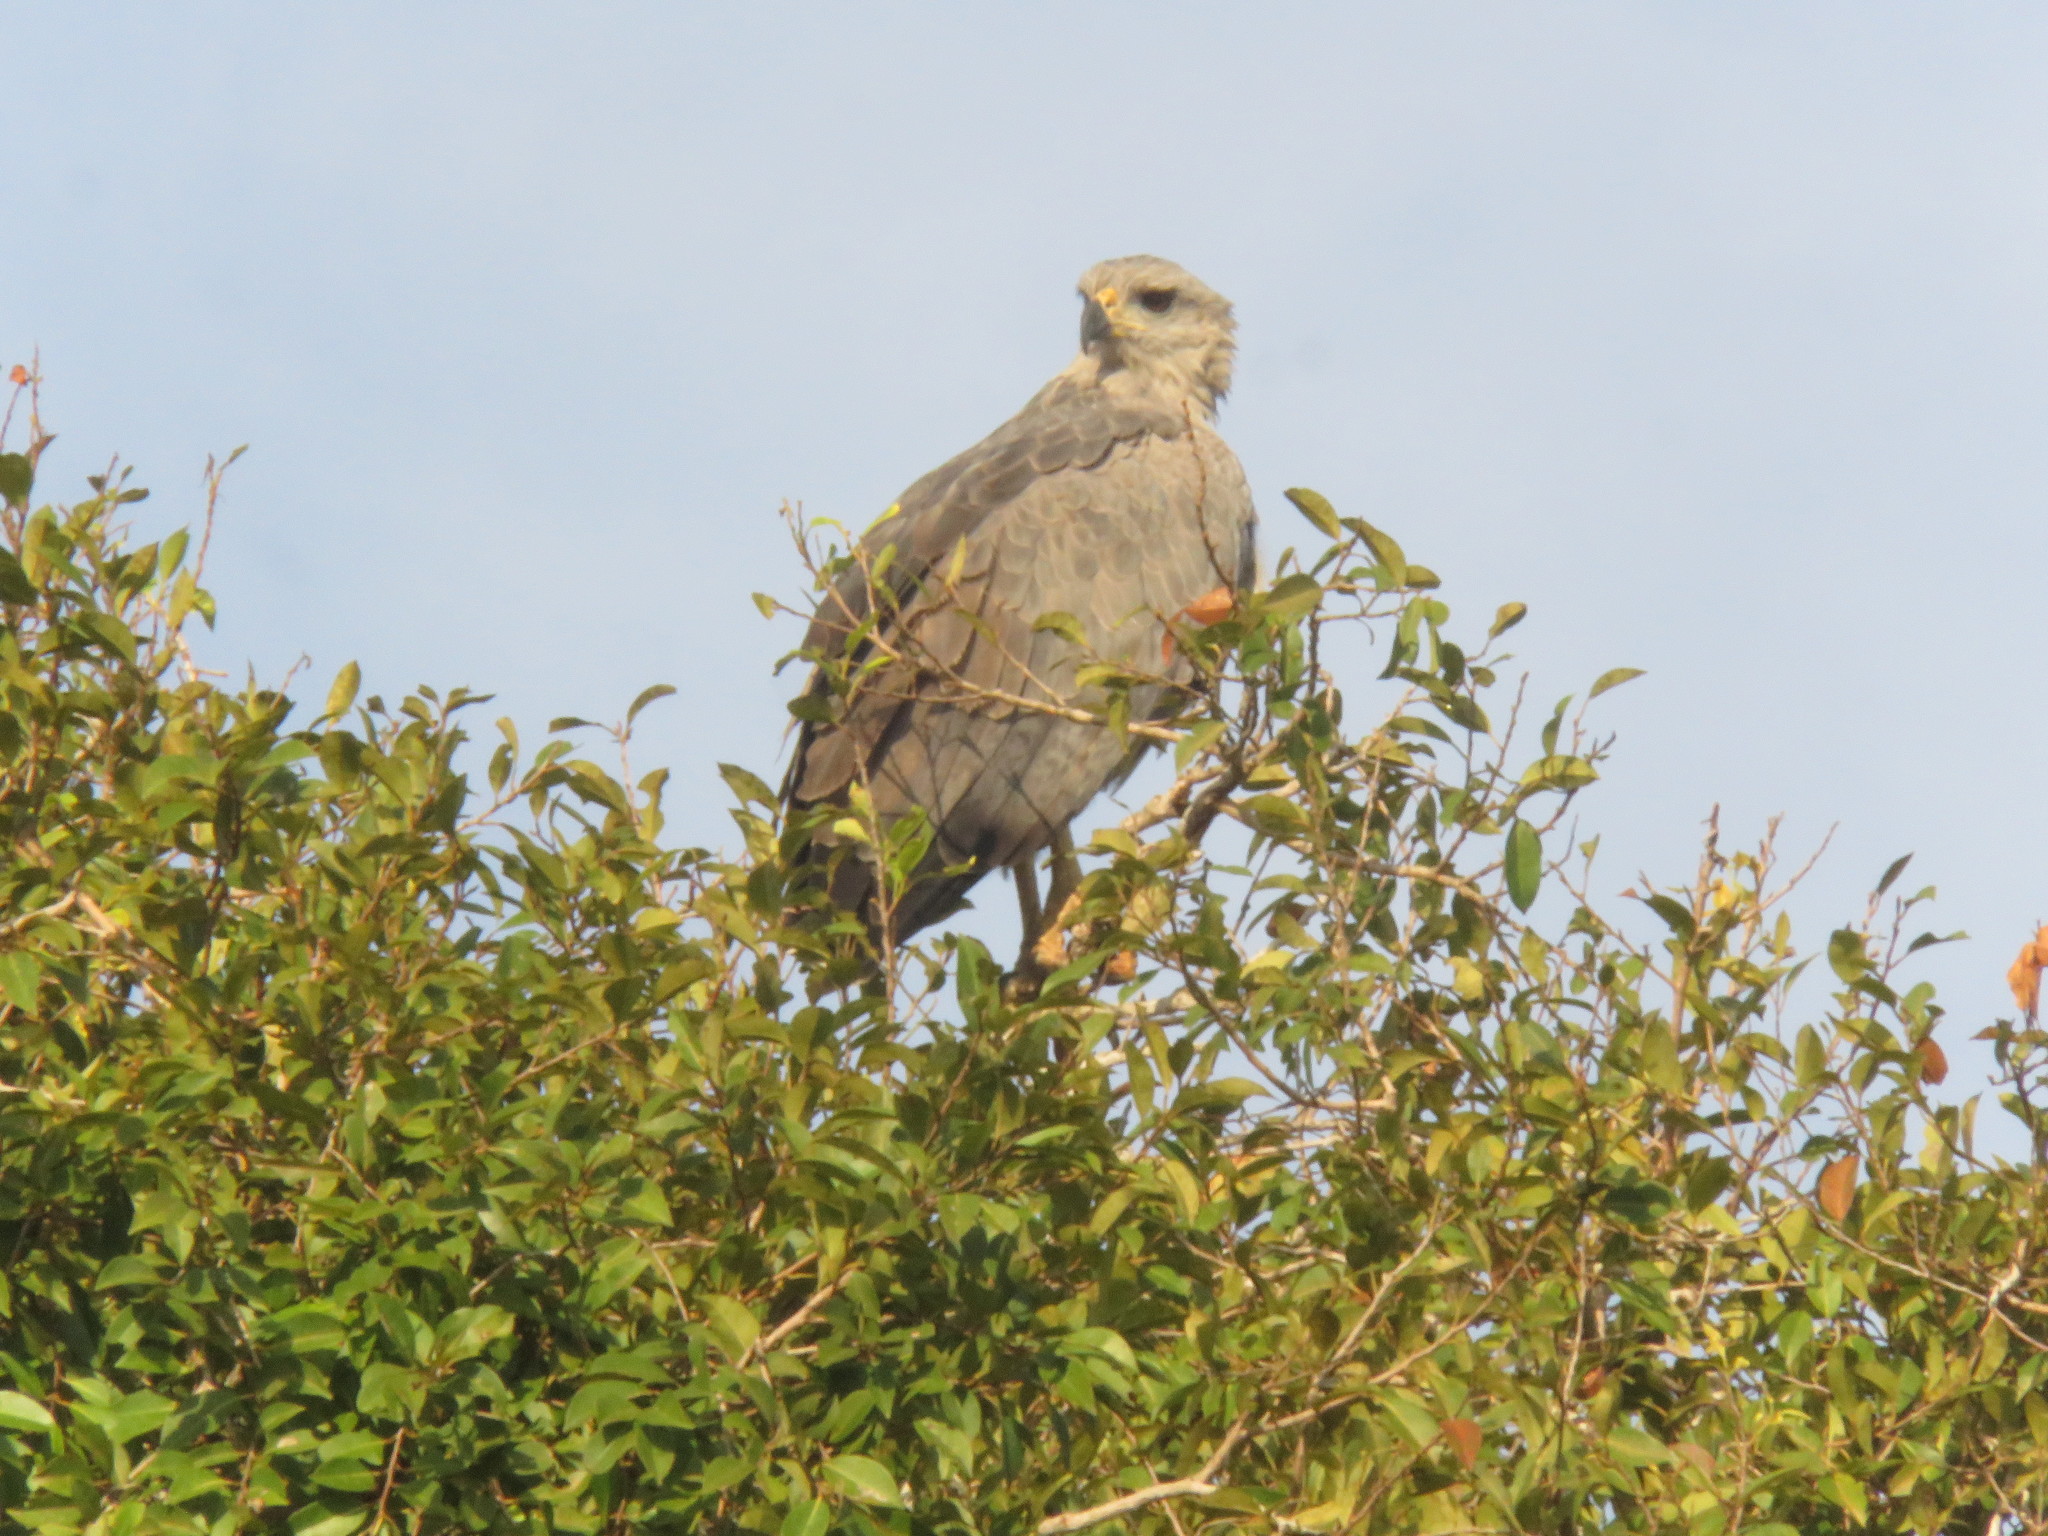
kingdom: Animalia
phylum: Chordata
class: Aves
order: Accipitriformes
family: Accipitridae
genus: Harpyhaliaetus
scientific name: Harpyhaliaetus coronatus
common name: Crowned solitary eagle
